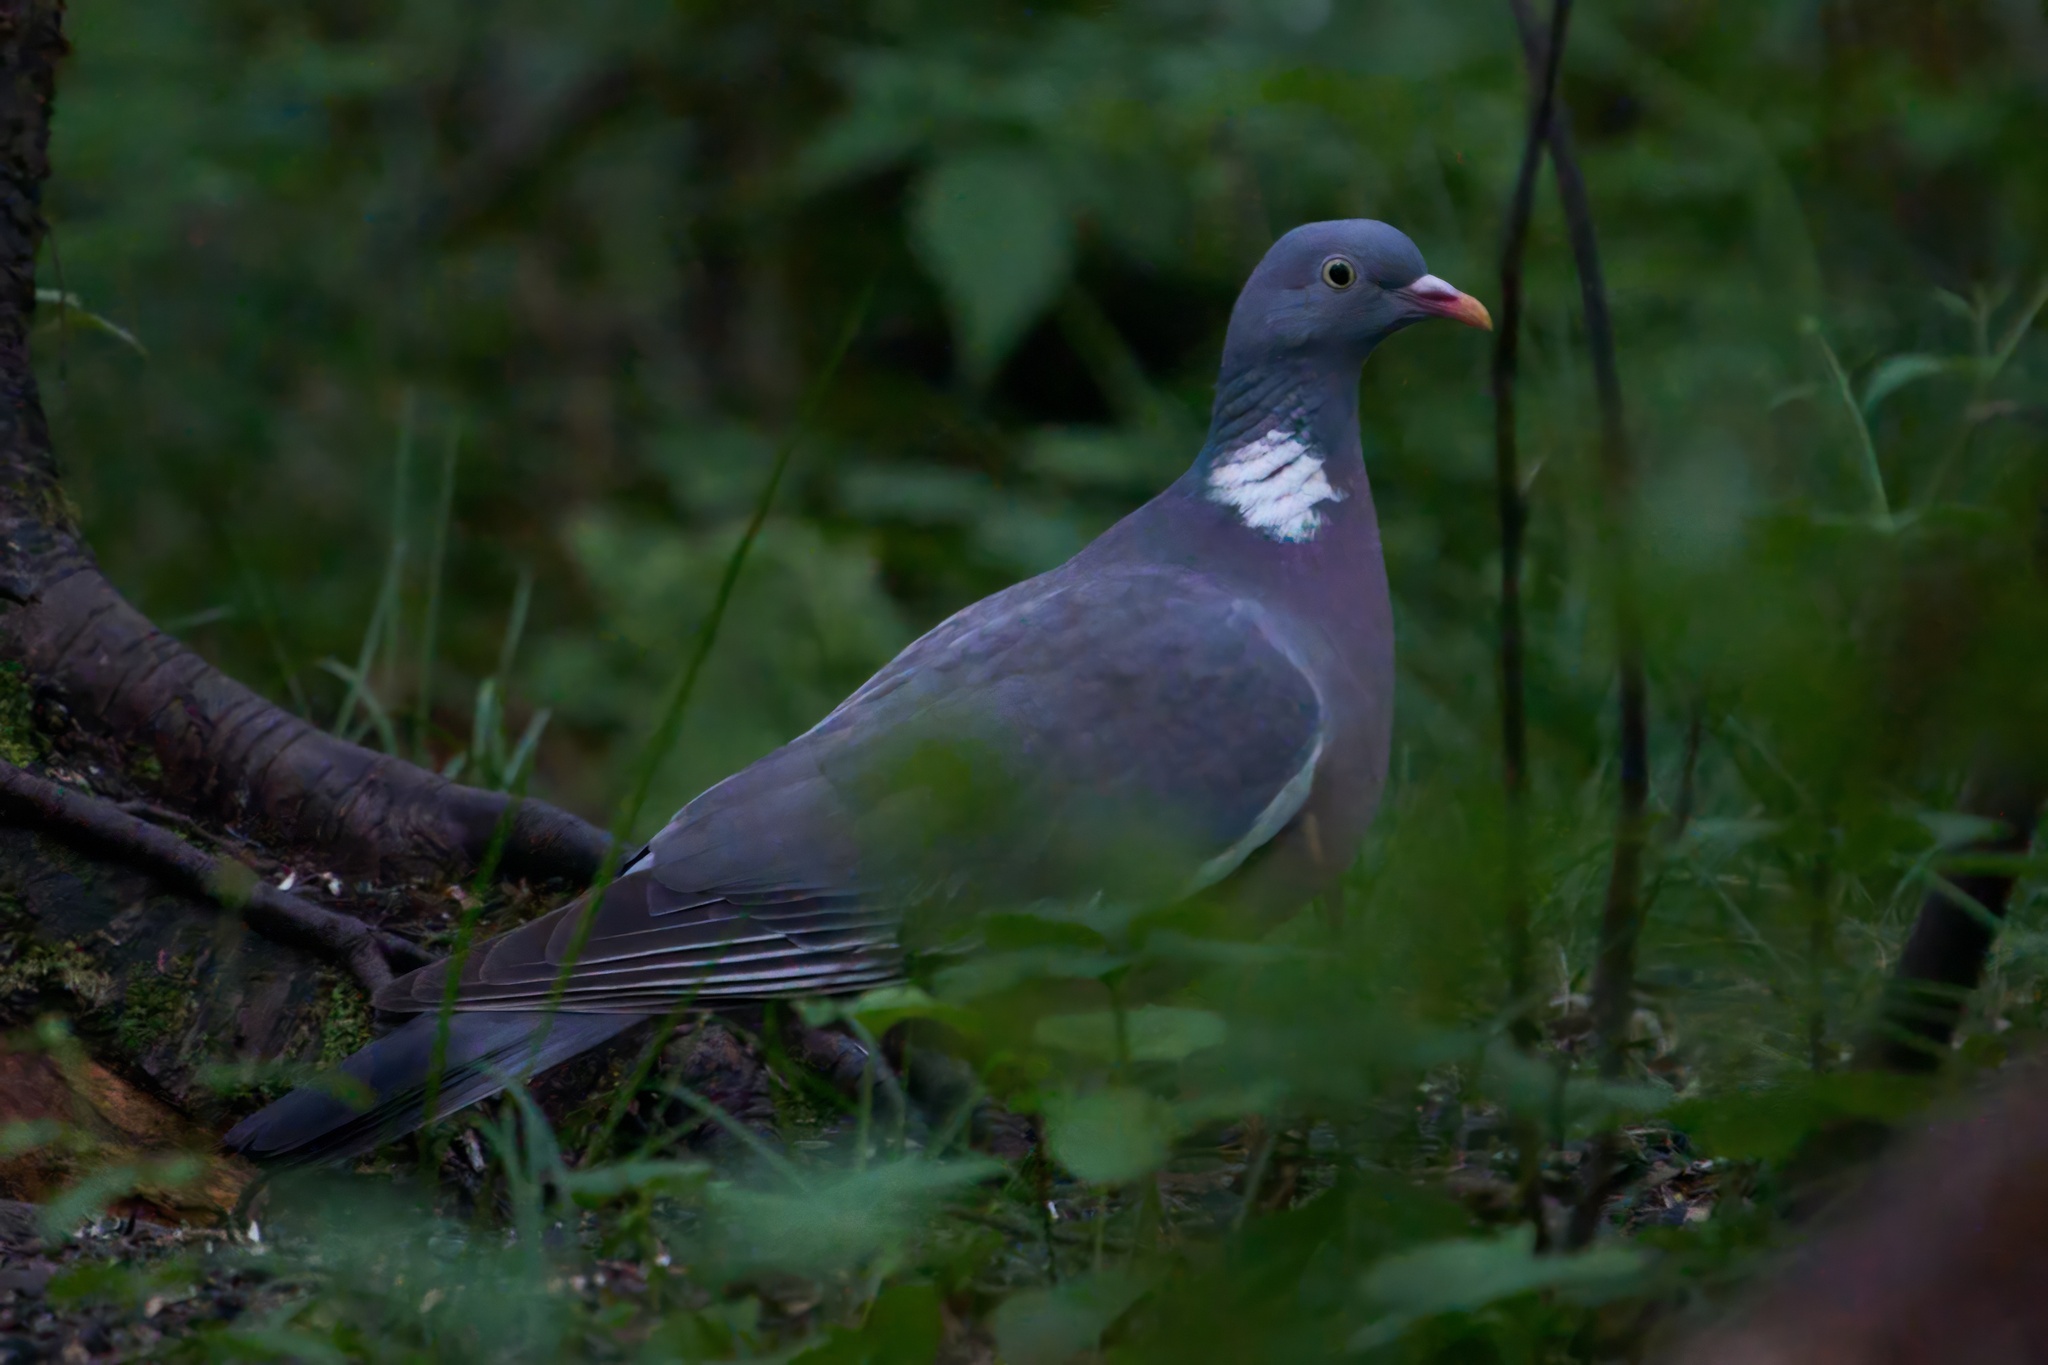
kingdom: Animalia
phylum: Chordata
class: Aves
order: Columbiformes
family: Columbidae
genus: Columba
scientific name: Columba palumbus
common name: Common wood pigeon
